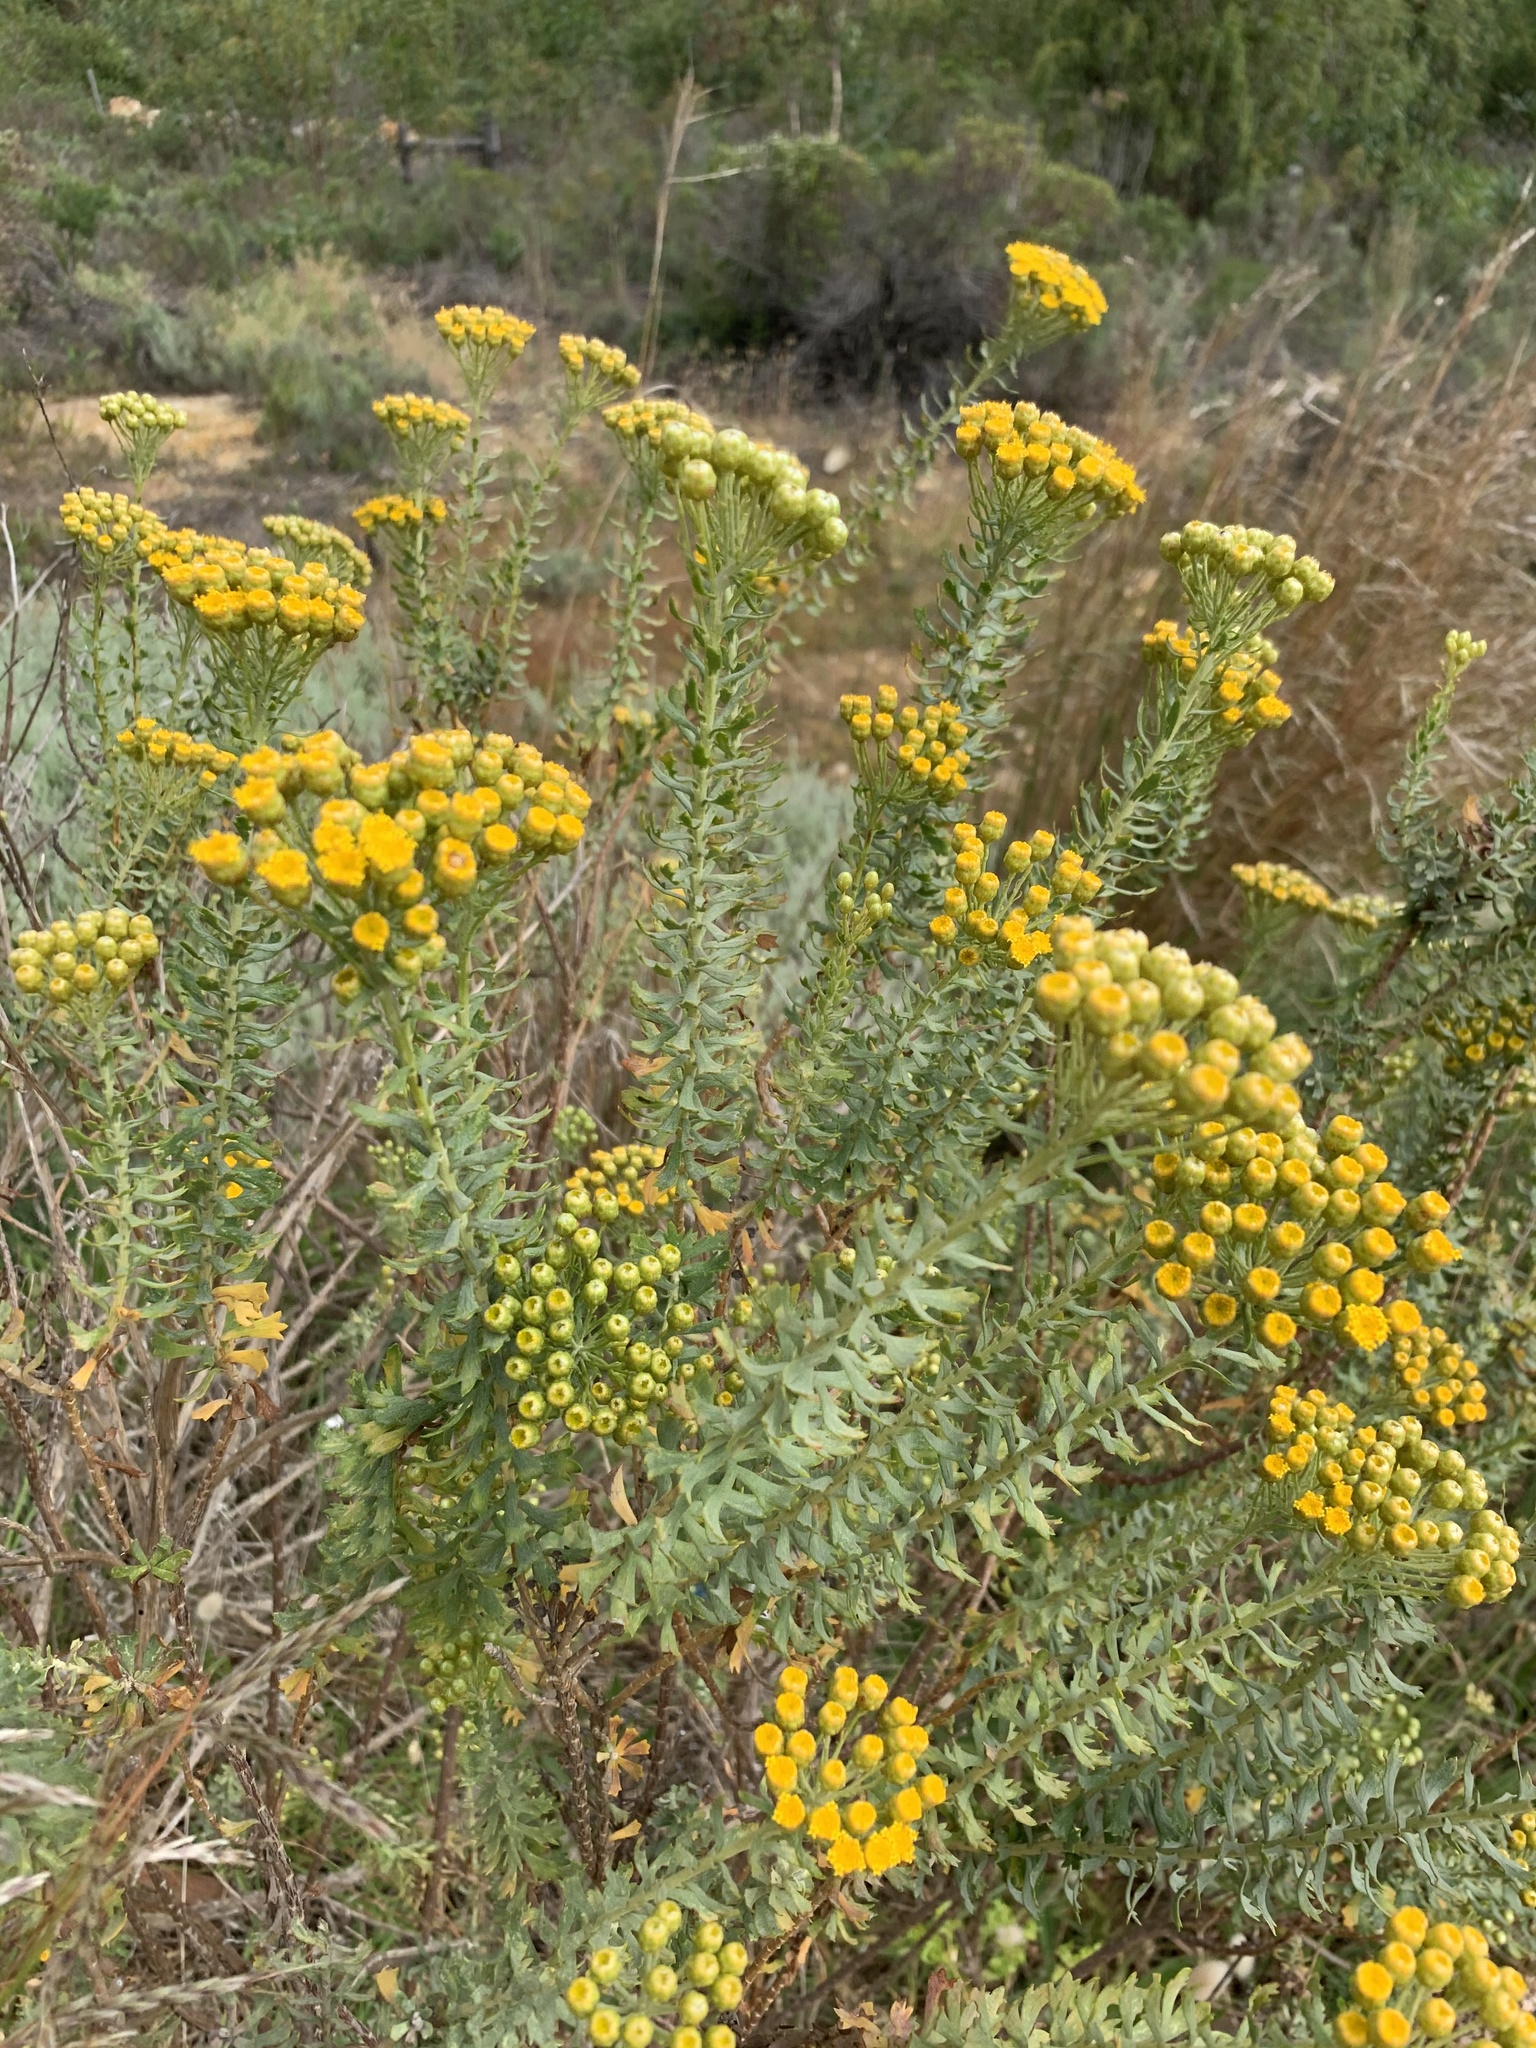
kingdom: Plantae
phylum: Tracheophyta
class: Magnoliopsida
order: Asterales
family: Asteraceae
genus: Athanasia
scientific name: Athanasia trifurcata
